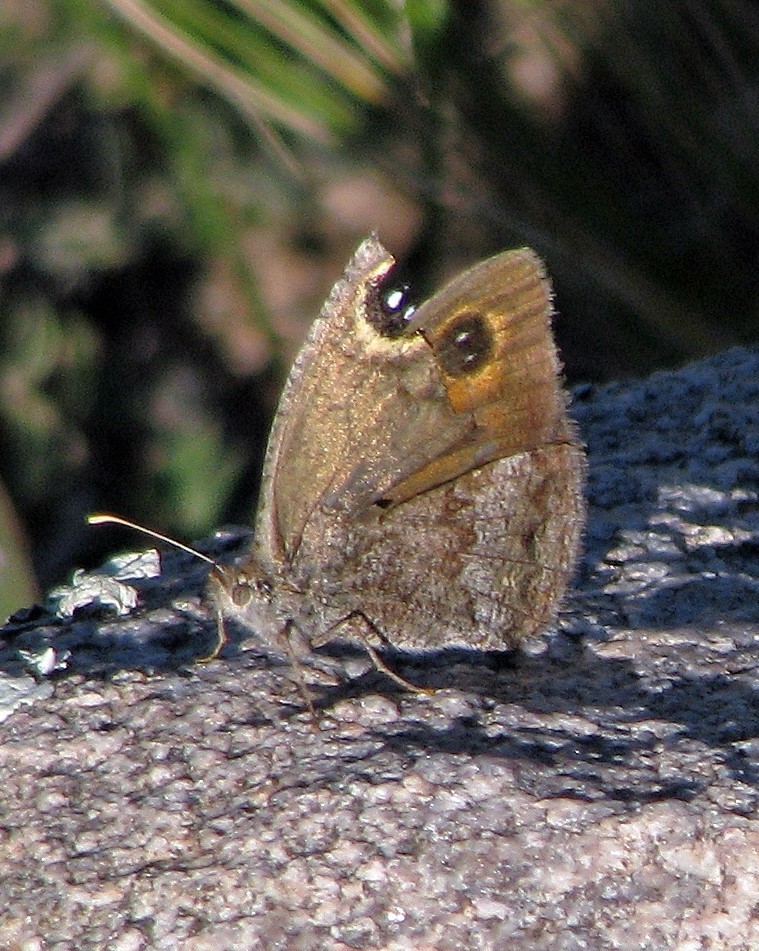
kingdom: Animalia
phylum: Arthropoda
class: Insecta
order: Lepidoptera
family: Nymphalidae
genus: Pampasatyrus
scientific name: Pampasatyrus yacantoensis
